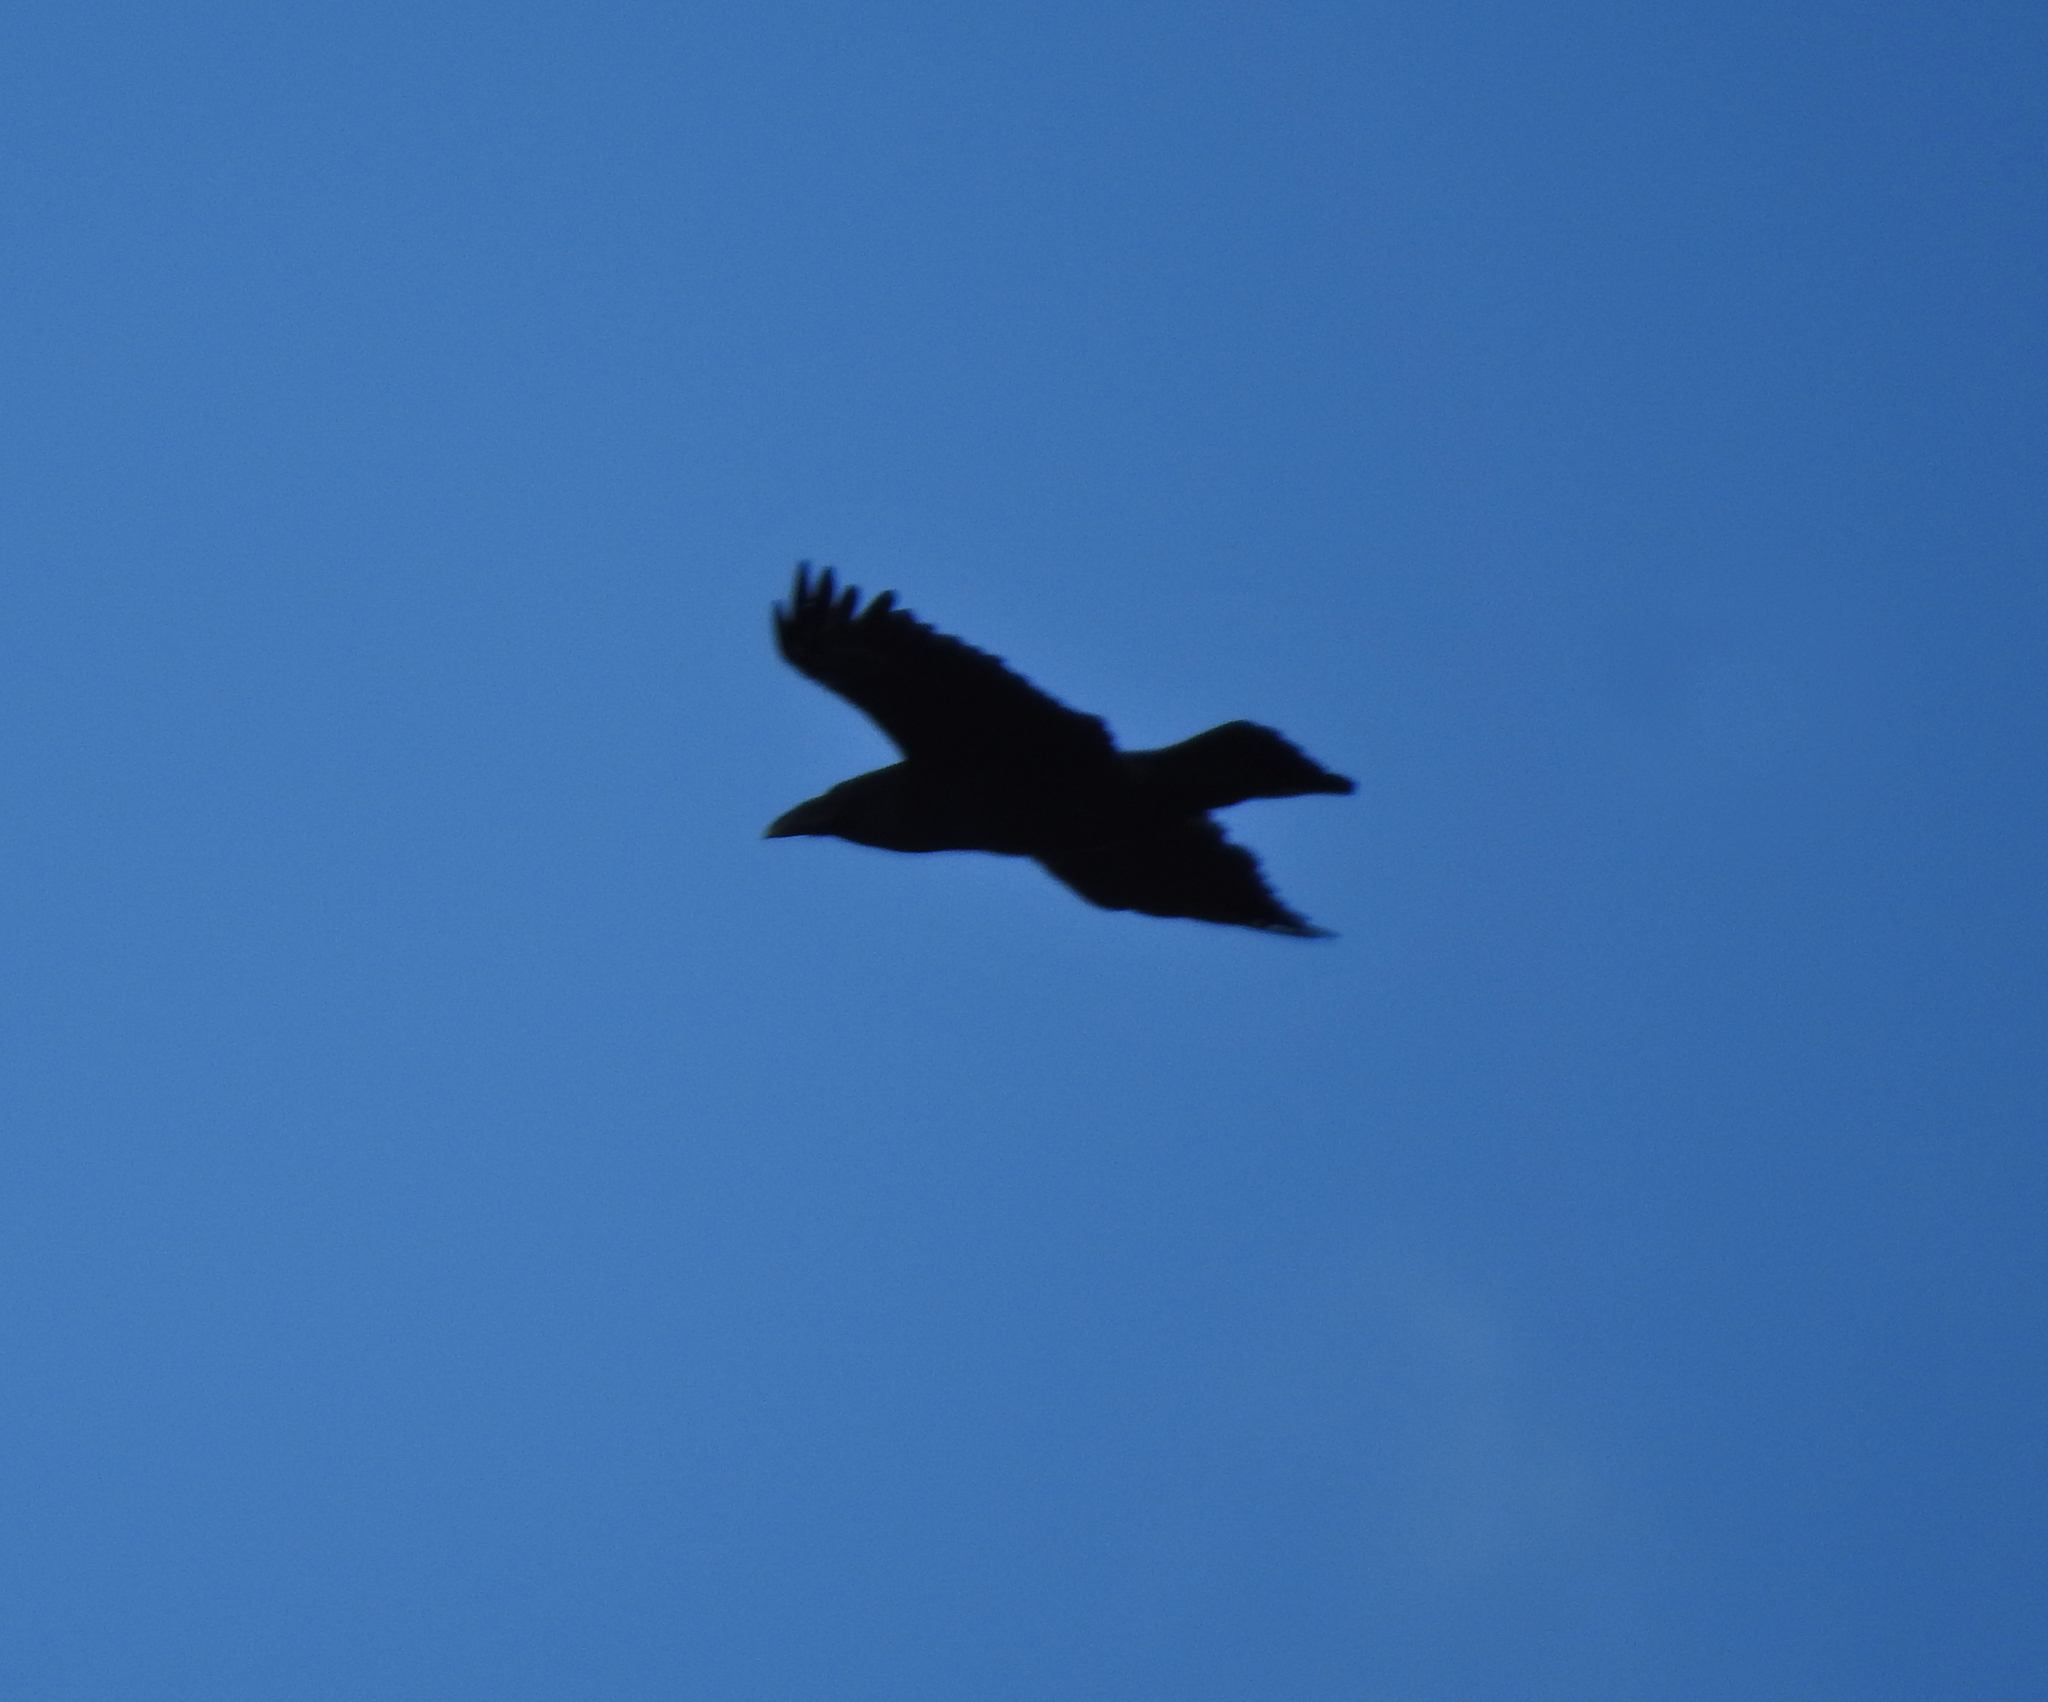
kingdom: Animalia
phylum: Chordata
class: Aves
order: Passeriformes
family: Corvidae
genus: Corvus
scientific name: Corvus corax
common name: Common raven
